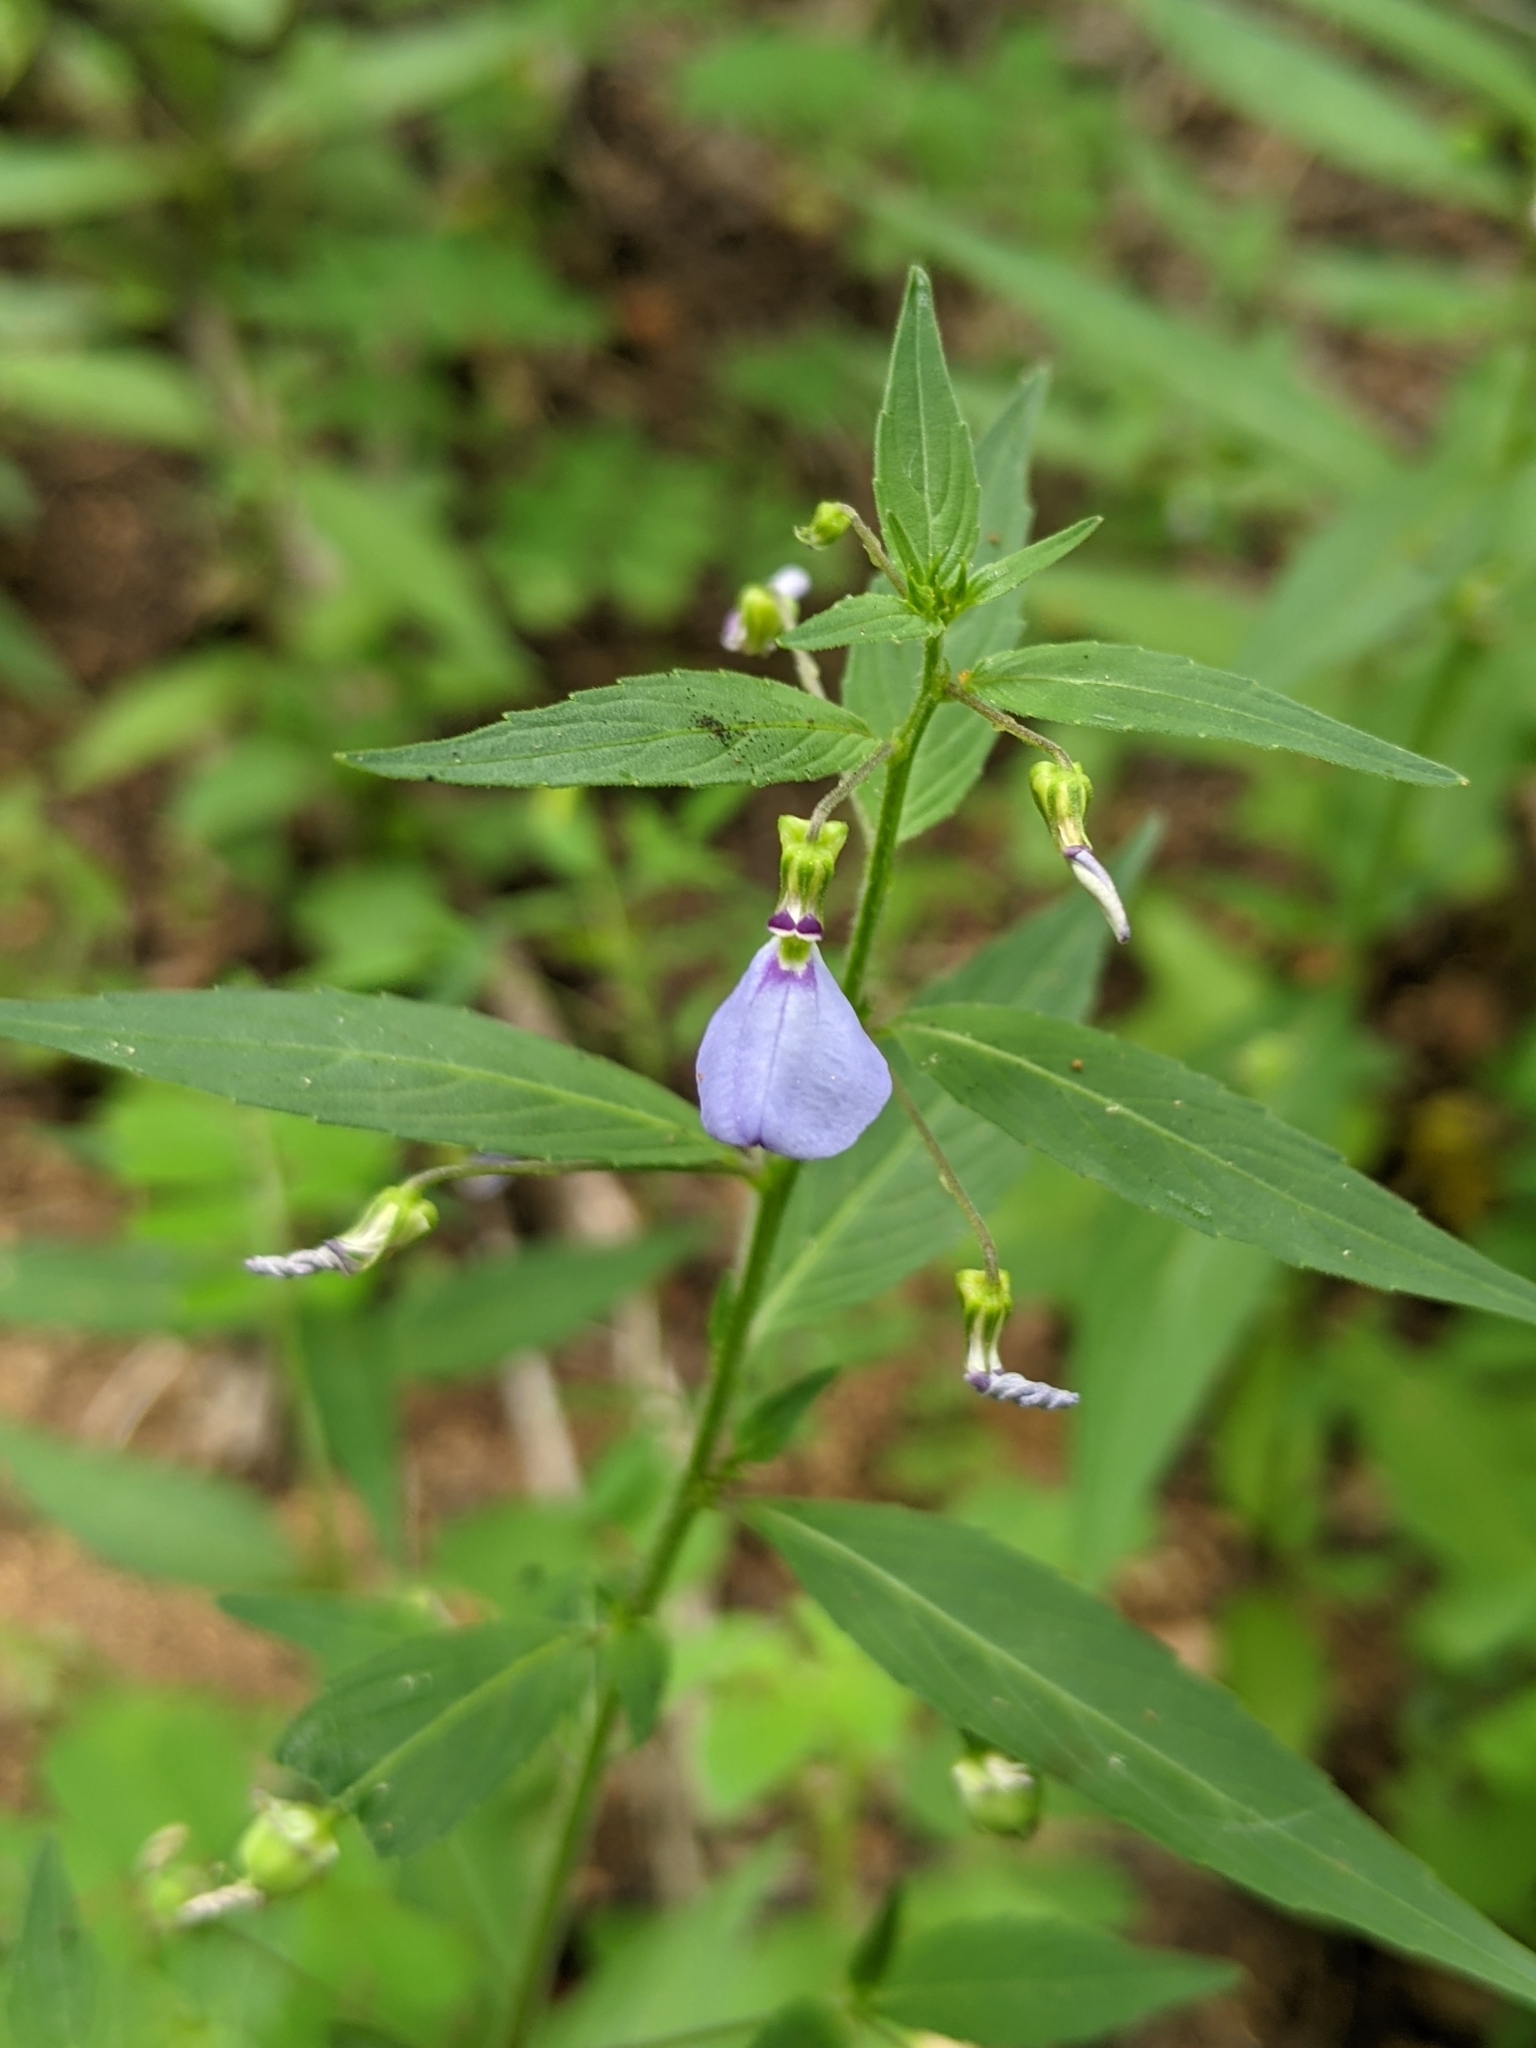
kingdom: Plantae
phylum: Tracheophyta
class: Magnoliopsida
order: Malpighiales
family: Violaceae
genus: Pombalia
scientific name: Pombalia glabra
